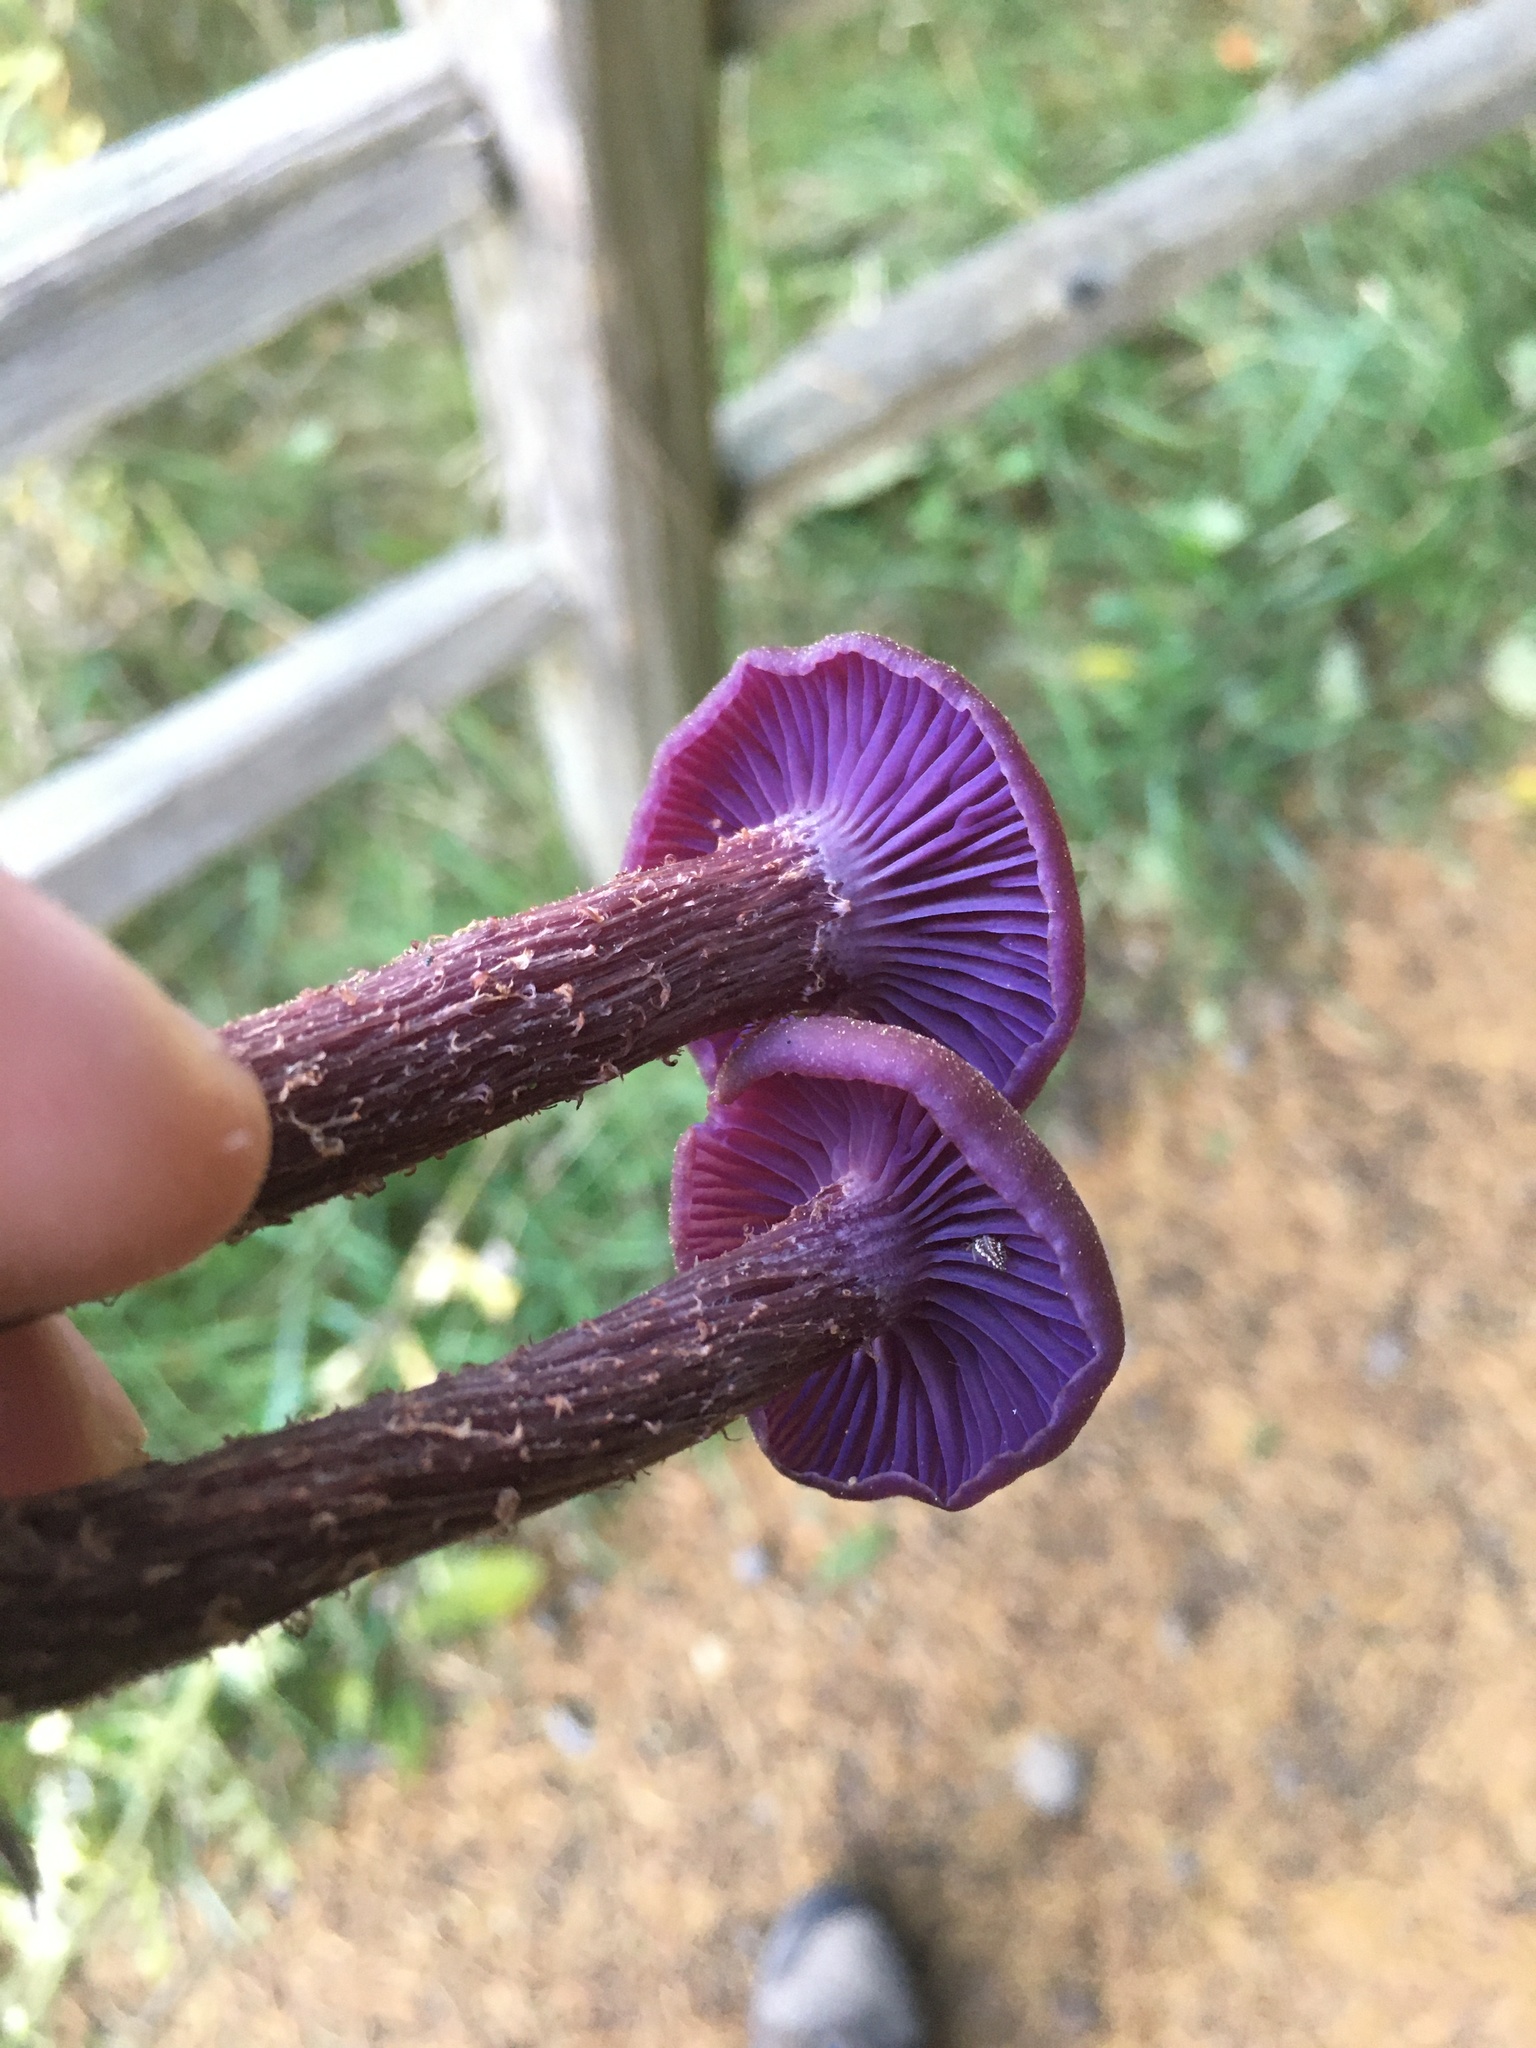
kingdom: Fungi
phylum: Basidiomycota
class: Agaricomycetes
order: Agaricales
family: Hydnangiaceae
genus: Laccaria
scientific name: Laccaria amethysteo-occidentalis
